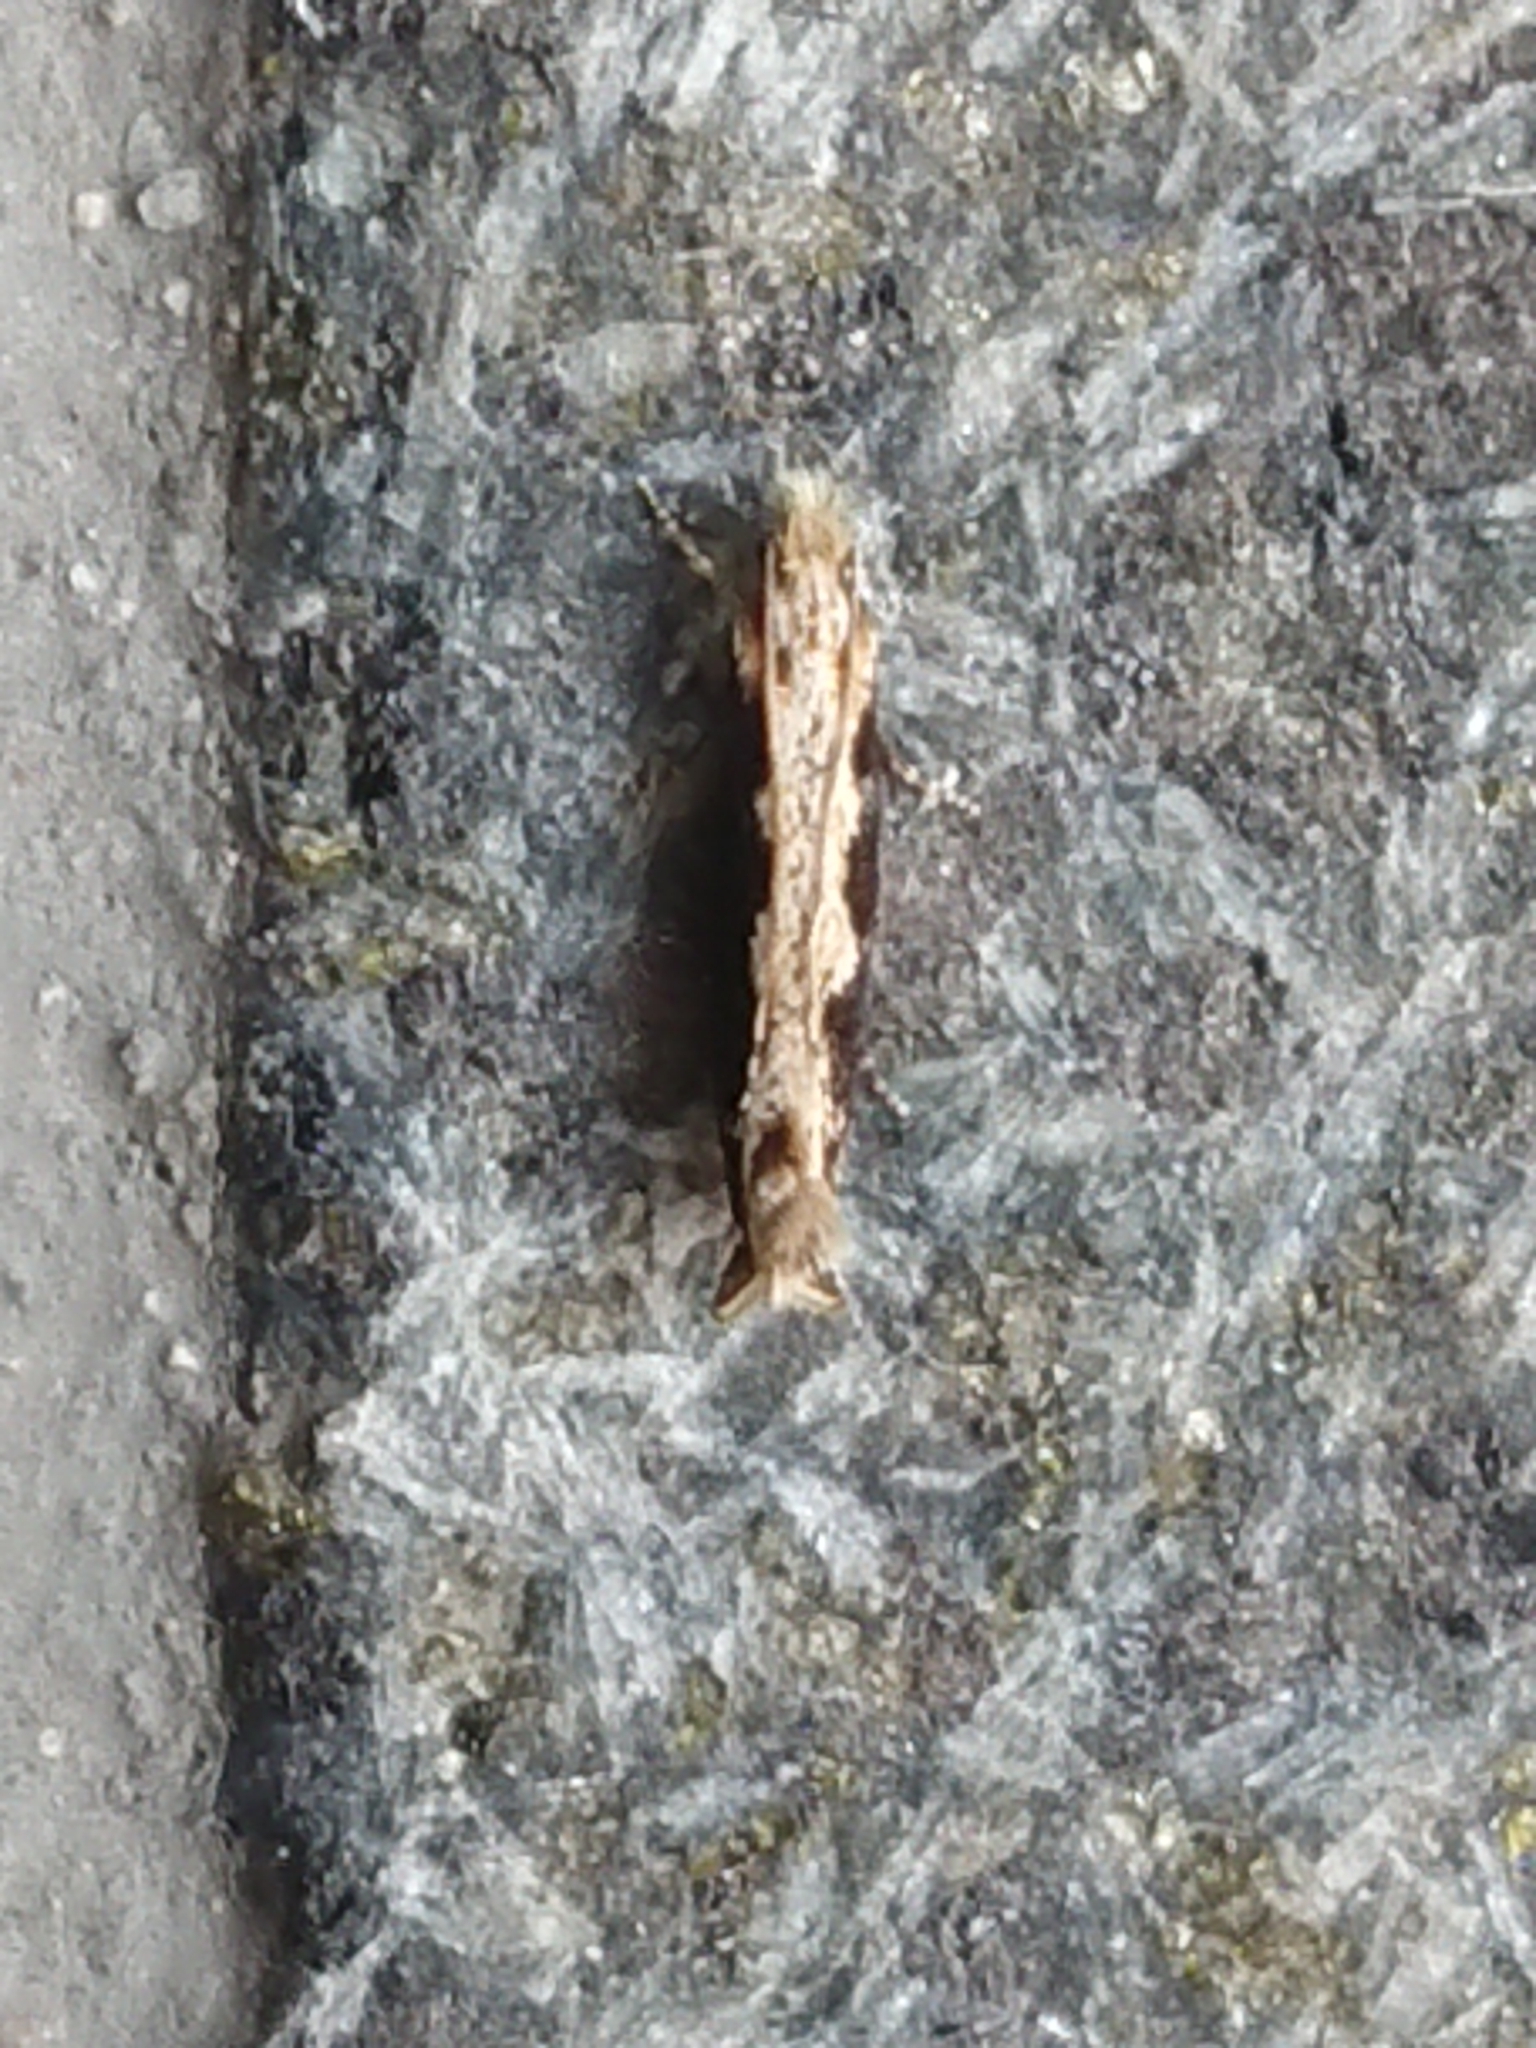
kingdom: Animalia
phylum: Arthropoda
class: Insecta
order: Lepidoptera
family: Tineidae
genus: Erechthias
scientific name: Erechthias macrozyga
